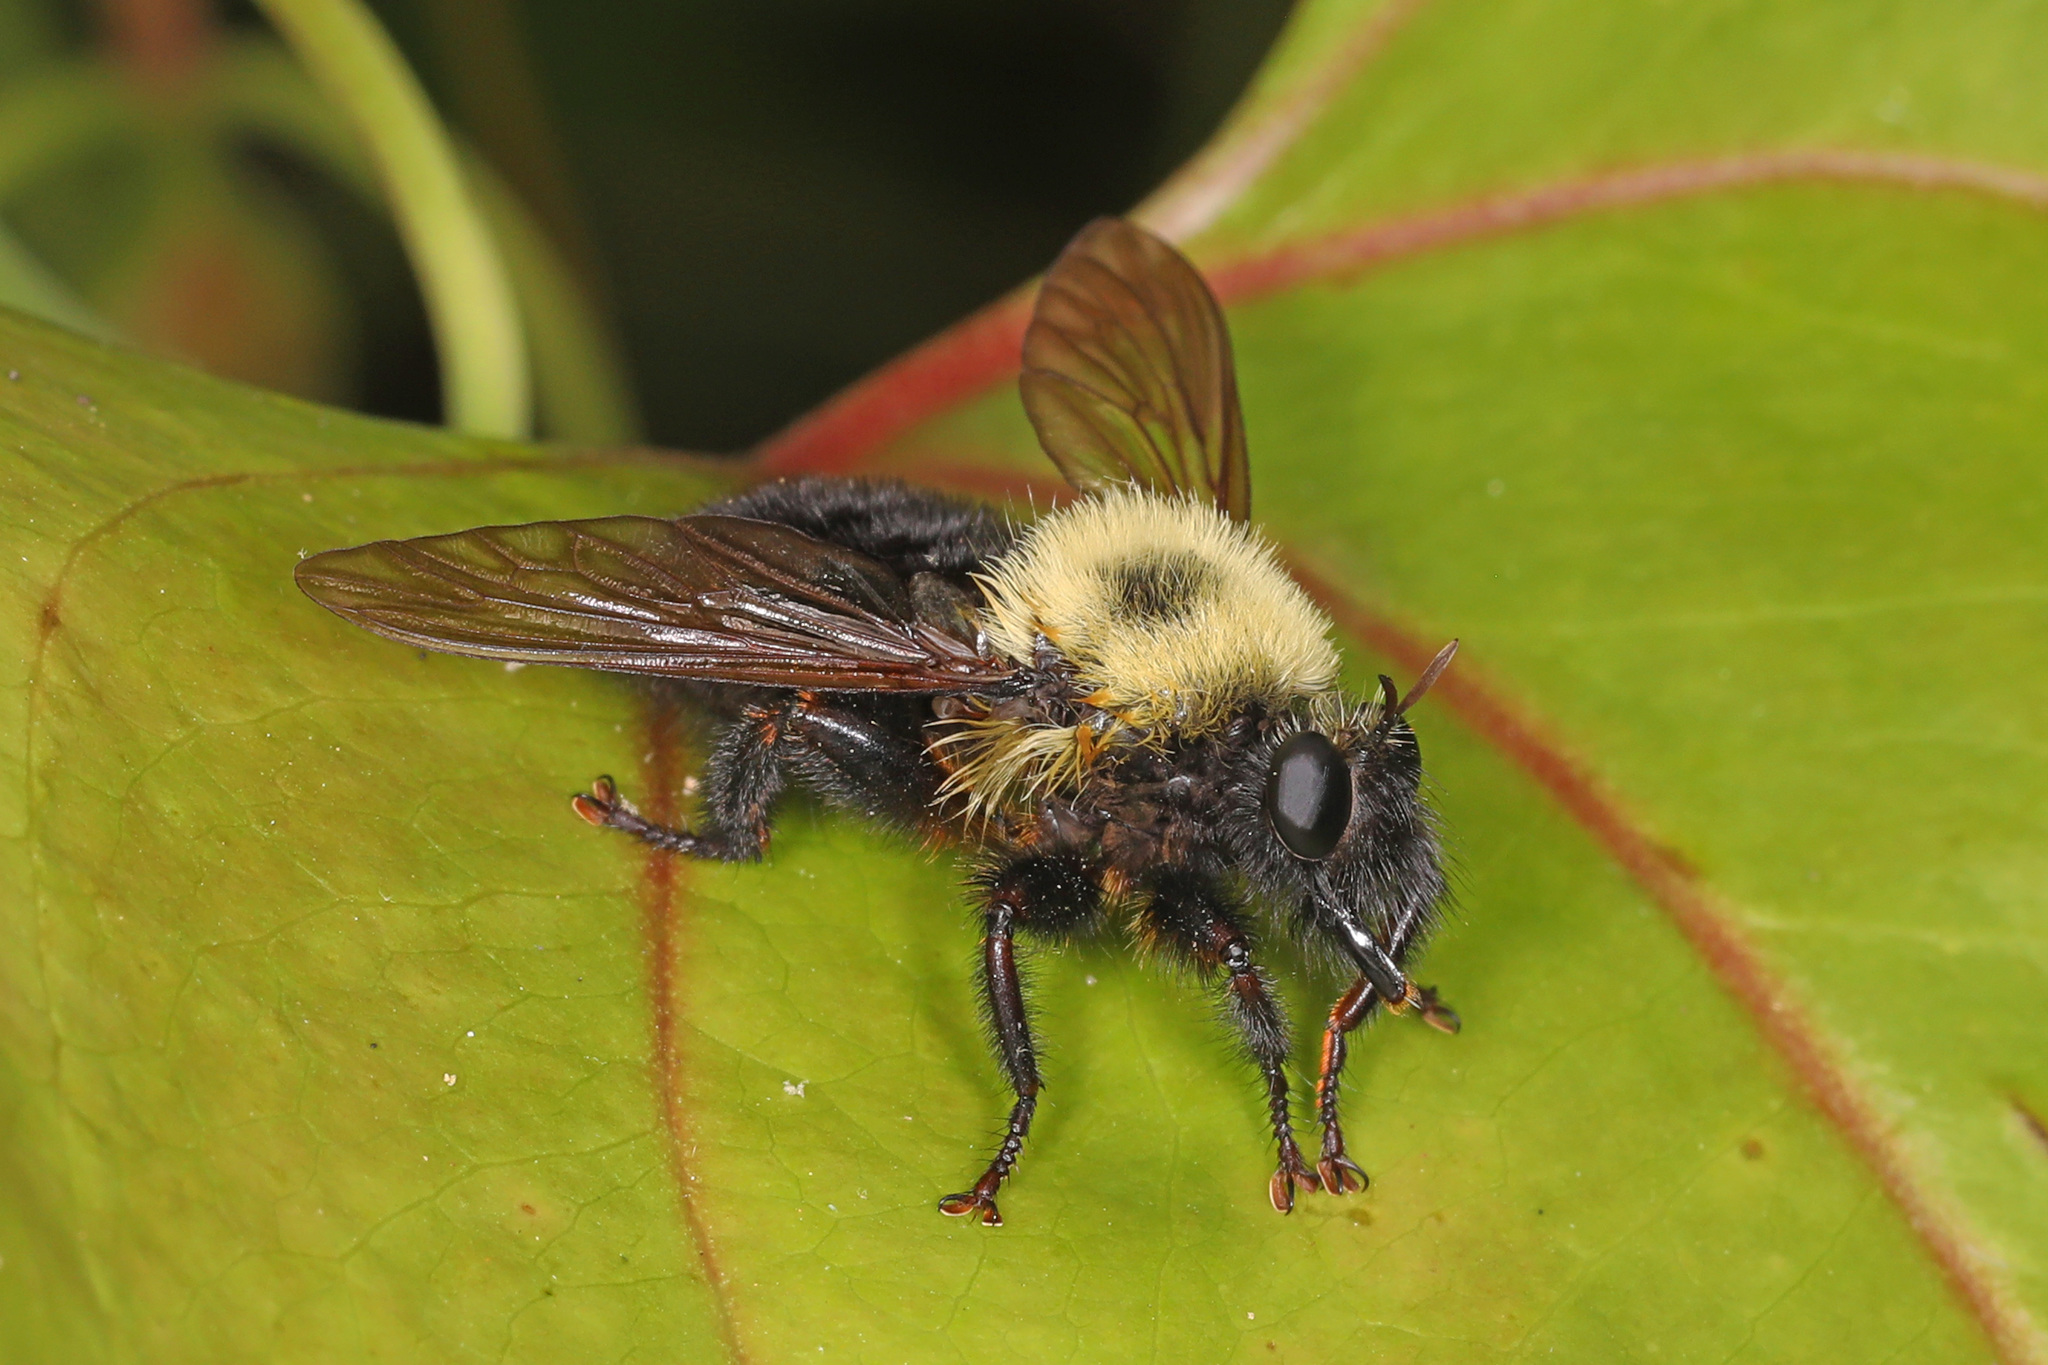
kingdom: Animalia
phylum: Arthropoda
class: Insecta
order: Diptera
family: Asilidae
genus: Laphria
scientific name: Laphria thoracica
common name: Bumble bee mimic robber fly
